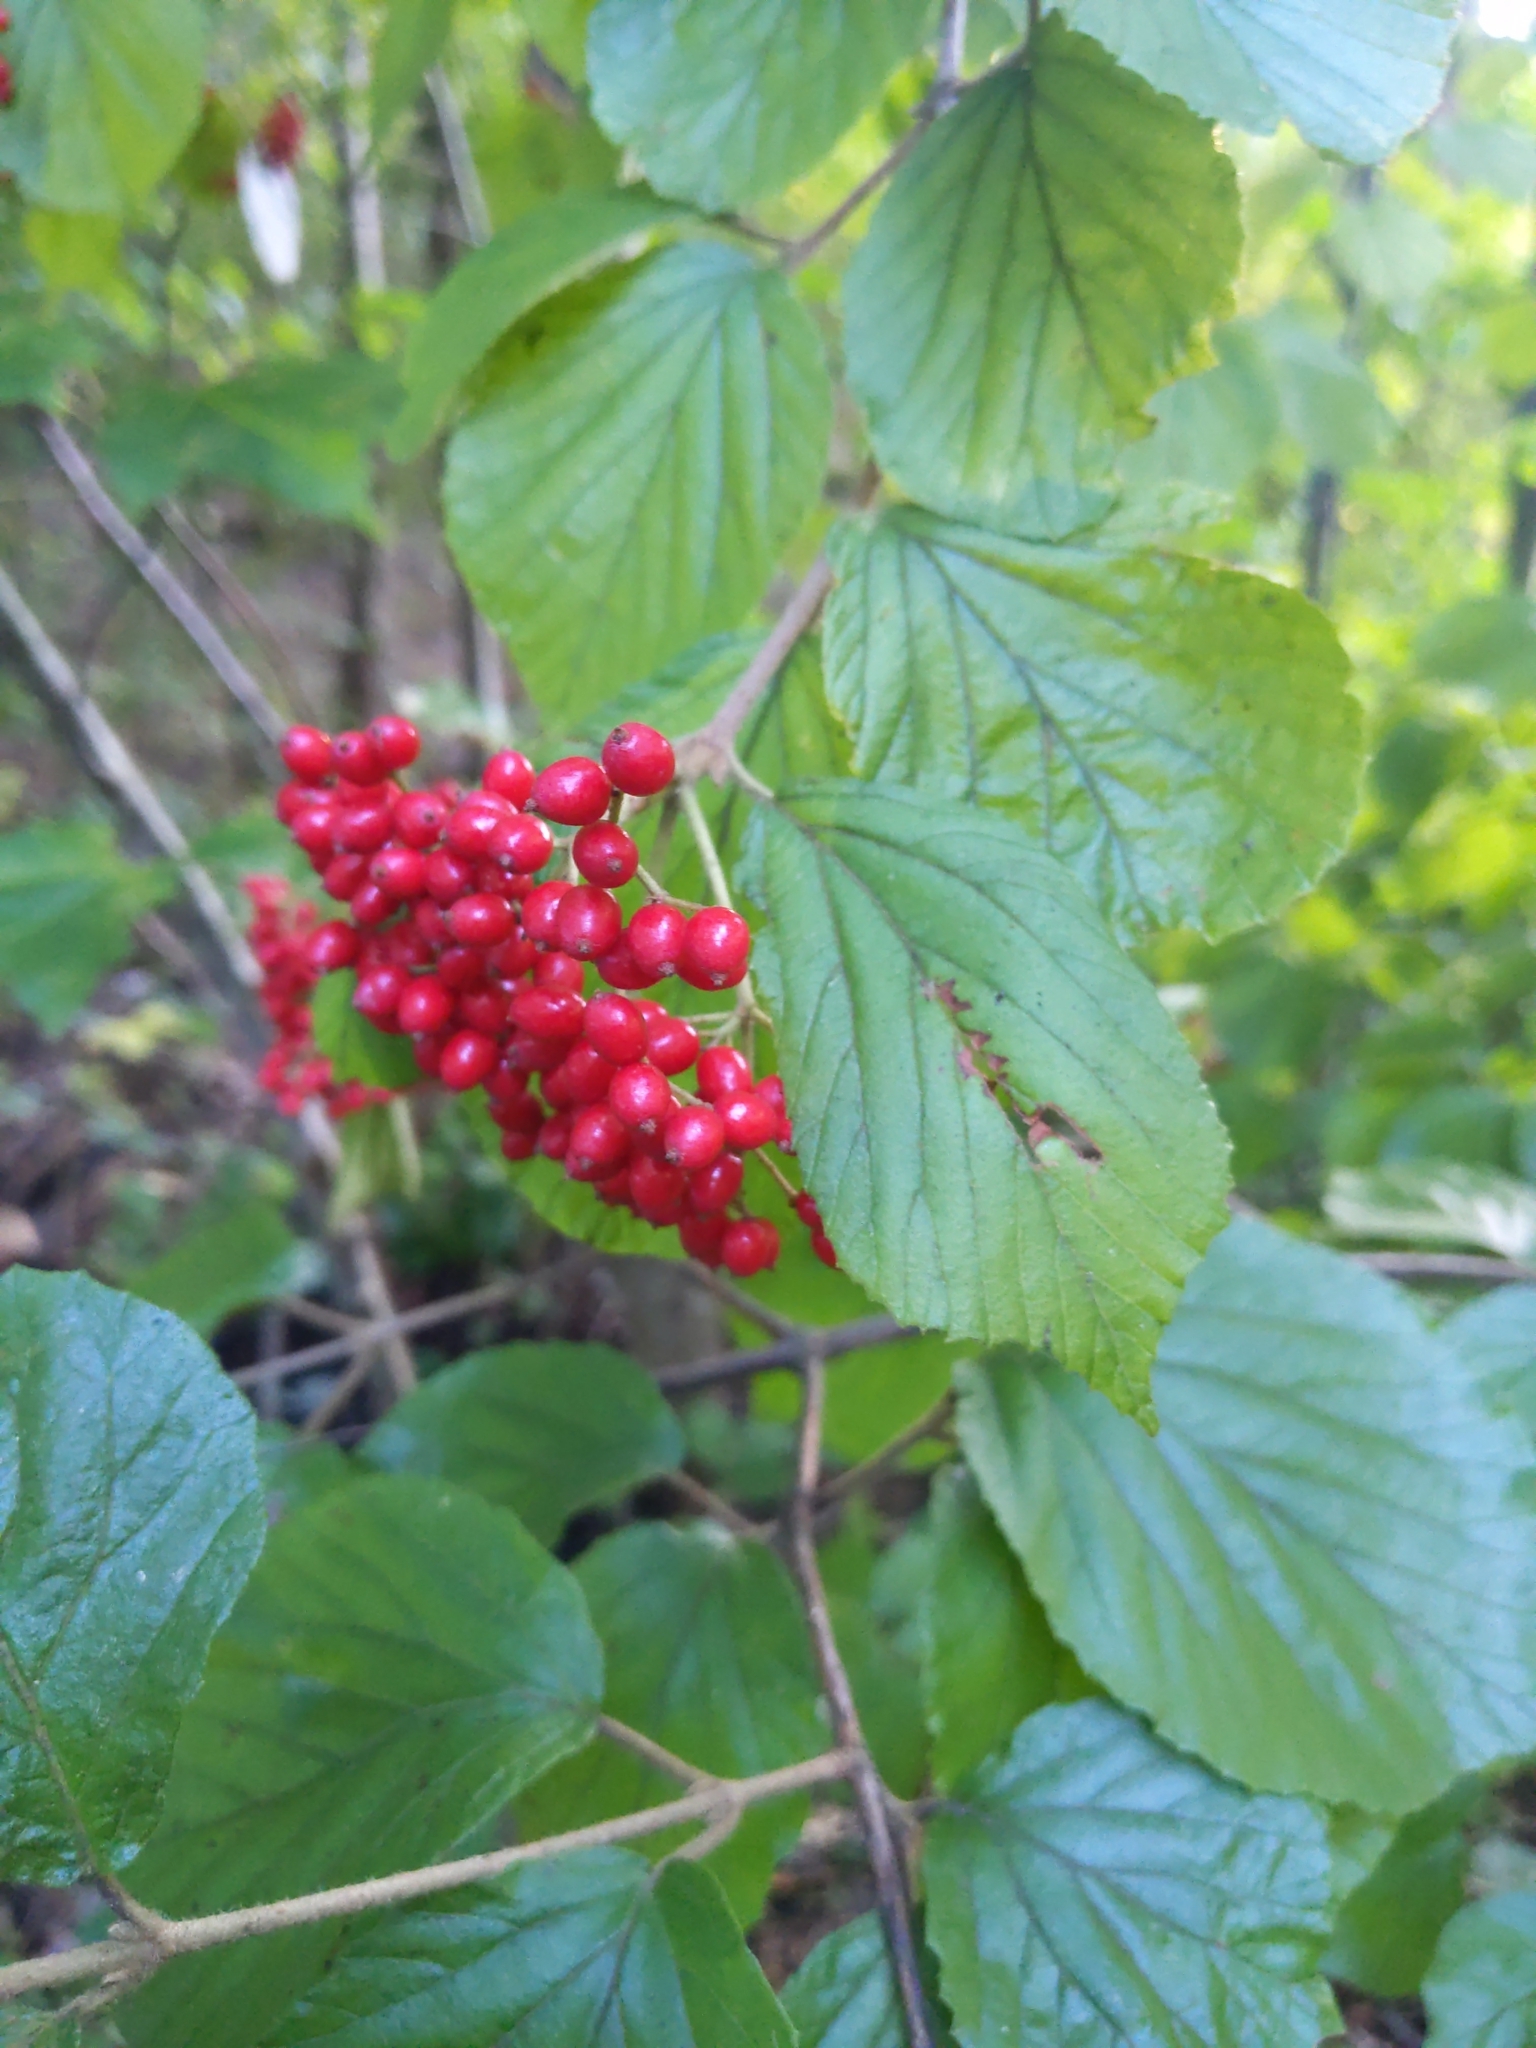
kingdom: Plantae
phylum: Tracheophyta
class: Magnoliopsida
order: Dipsacales
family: Viburnaceae
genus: Viburnum
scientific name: Viburnum dilatatum
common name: Linden arrowwood
